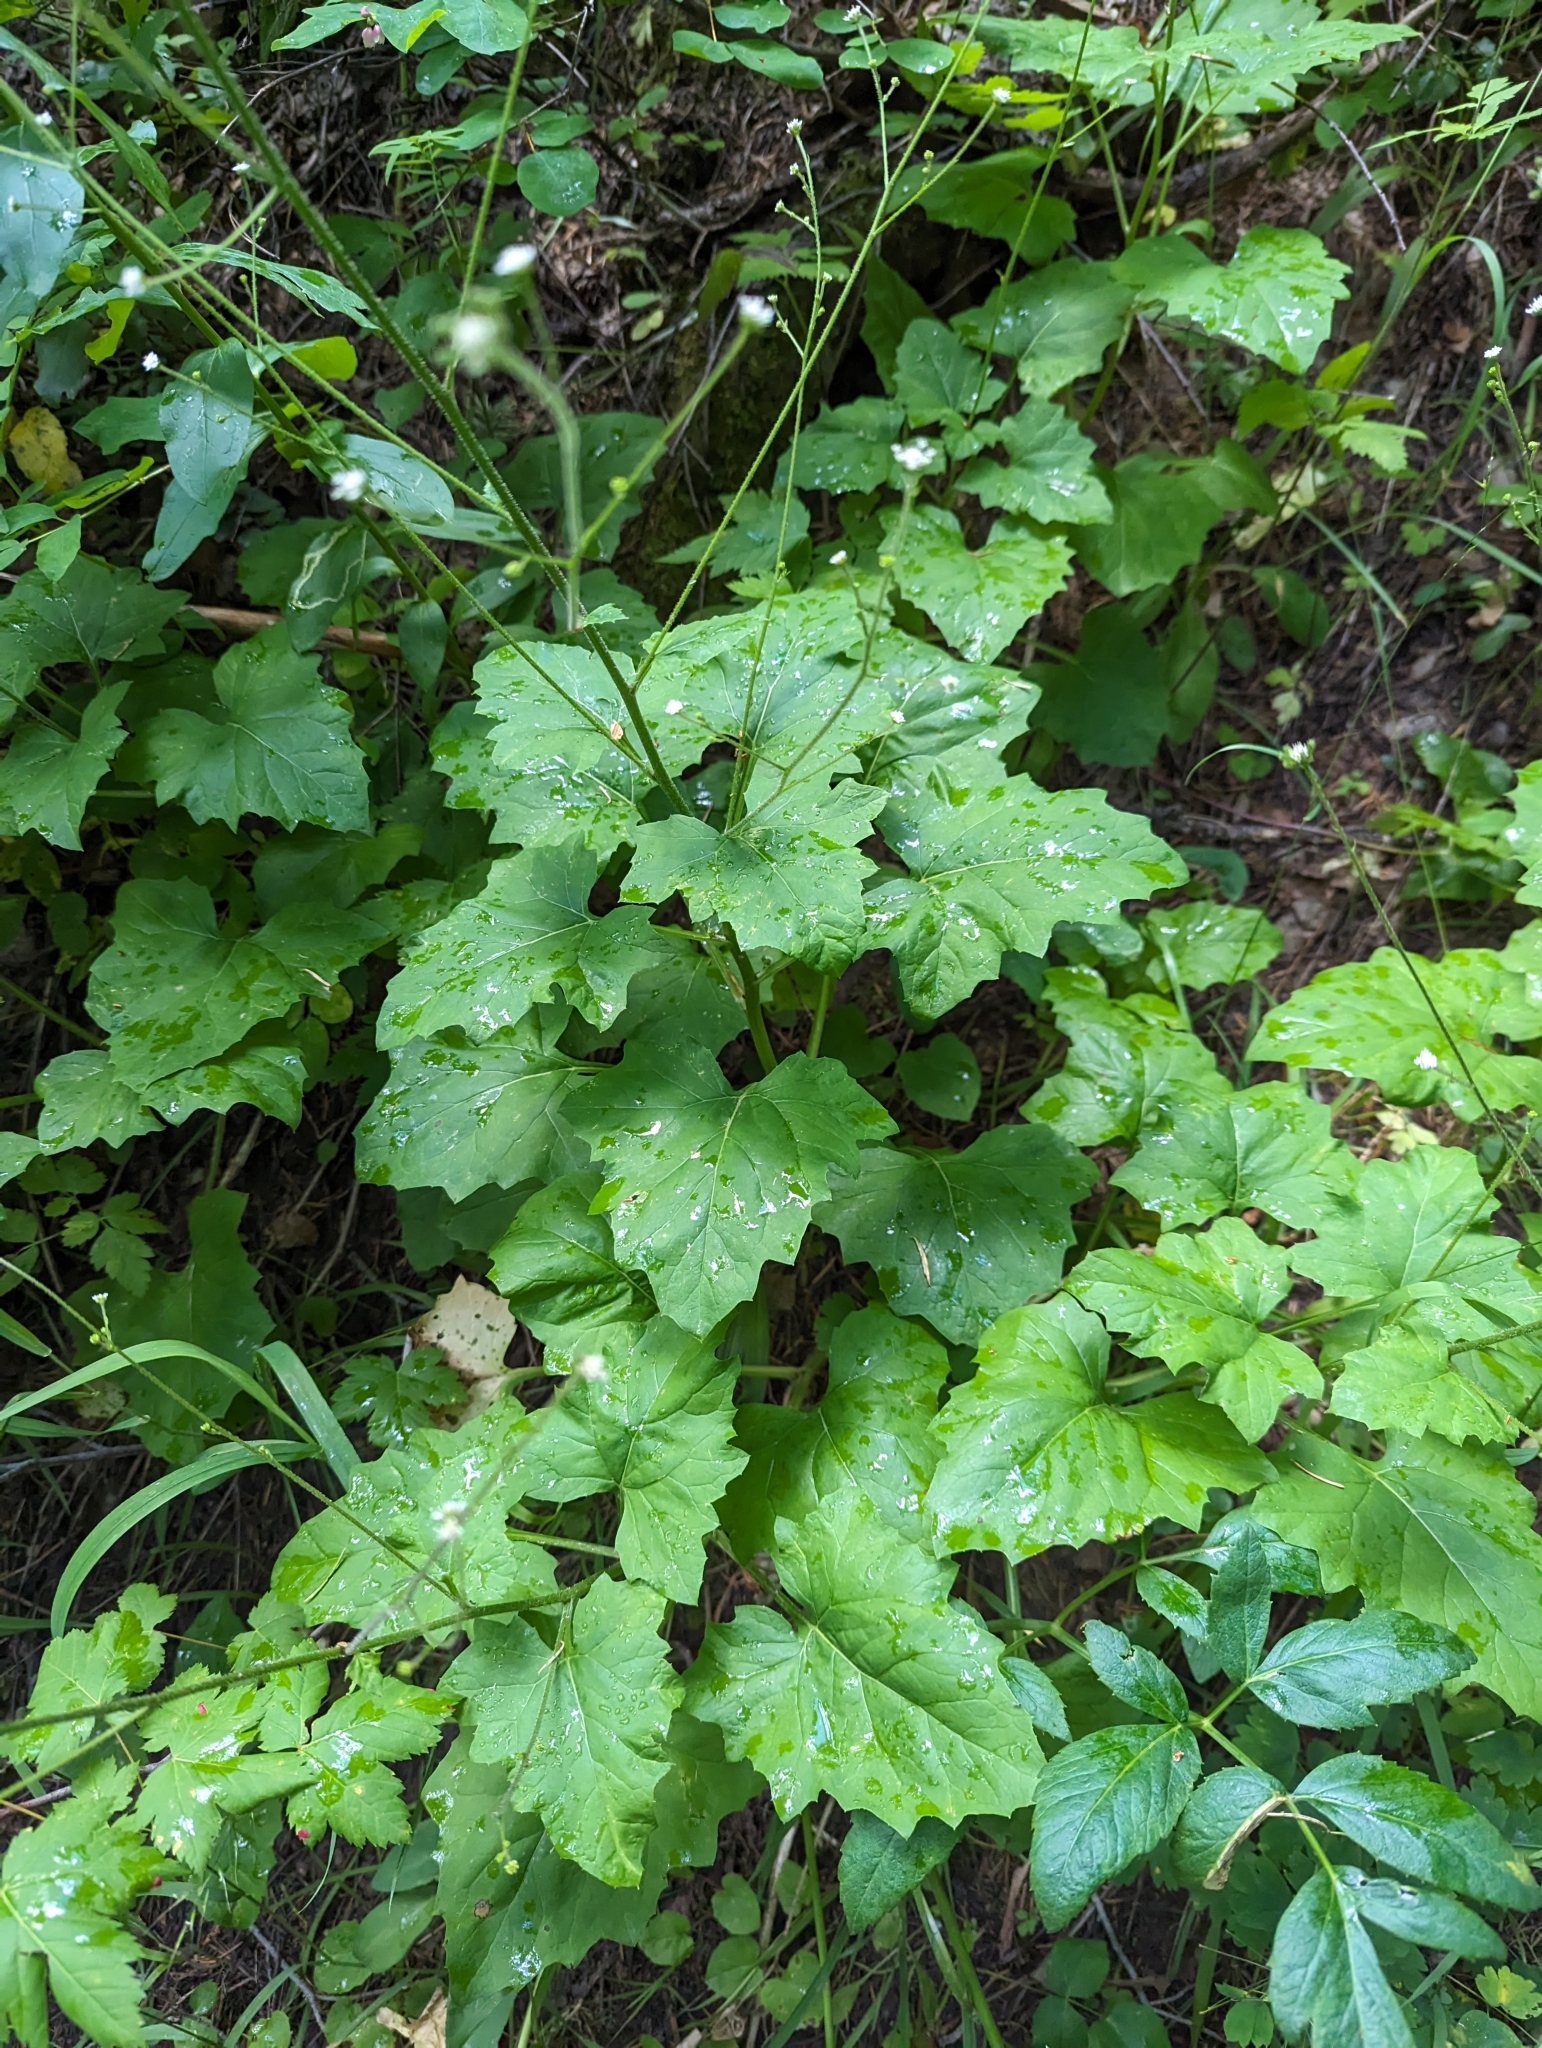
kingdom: Plantae
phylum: Tracheophyta
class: Magnoliopsida
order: Asterales
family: Asteraceae
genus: Adenocaulon
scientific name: Adenocaulon bicolor
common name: Trailplant
